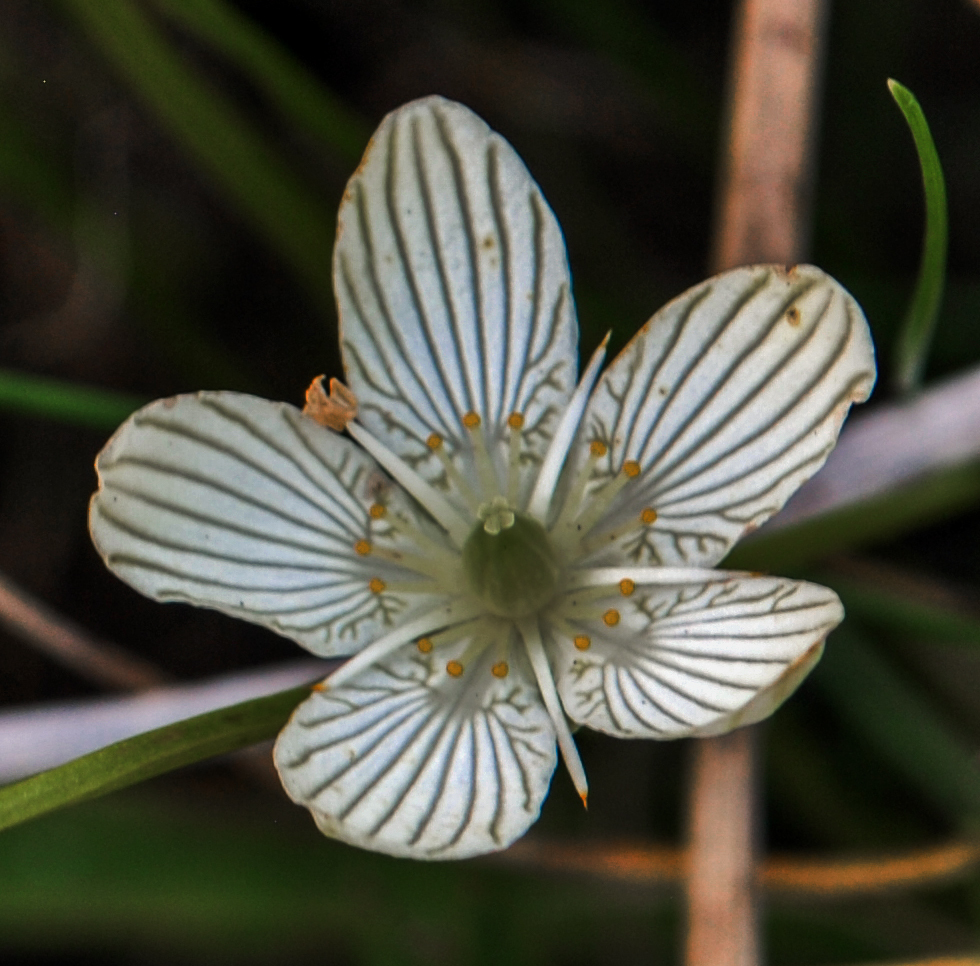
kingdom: Plantae
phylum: Tracheophyta
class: Magnoliopsida
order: Celastrales
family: Parnassiaceae
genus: Parnassia
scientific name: Parnassia glauca
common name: American grass-of-parnassus
